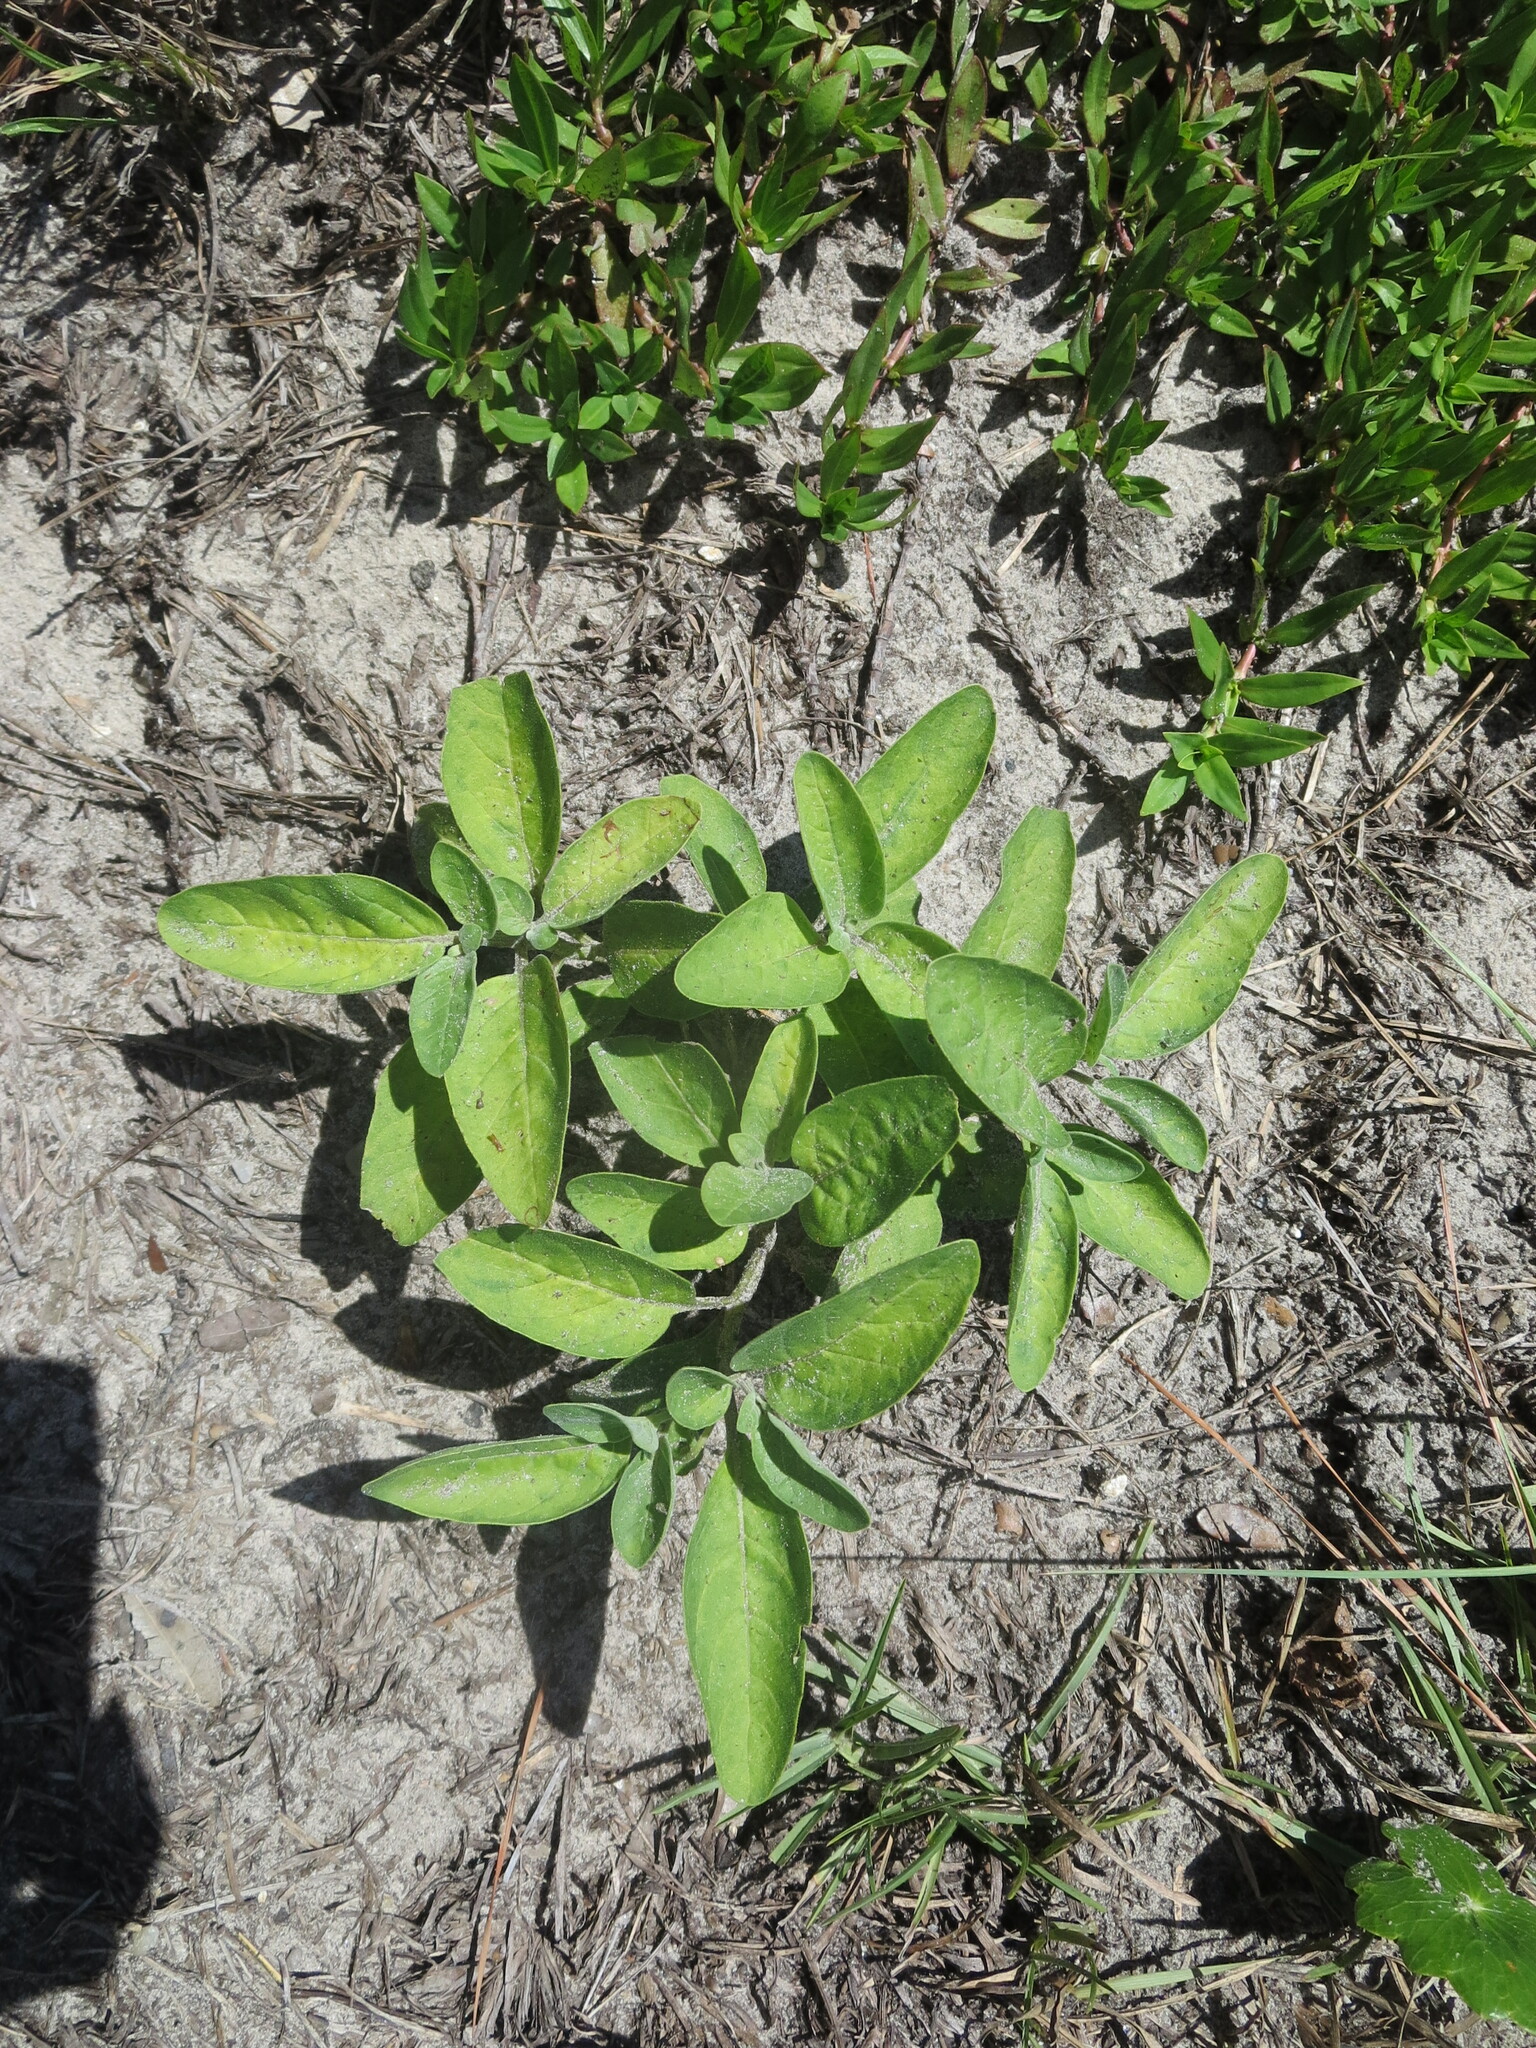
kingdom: Plantae
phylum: Tracheophyta
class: Magnoliopsida
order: Solanales
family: Solanaceae
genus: Physalis
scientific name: Physalis walteri
